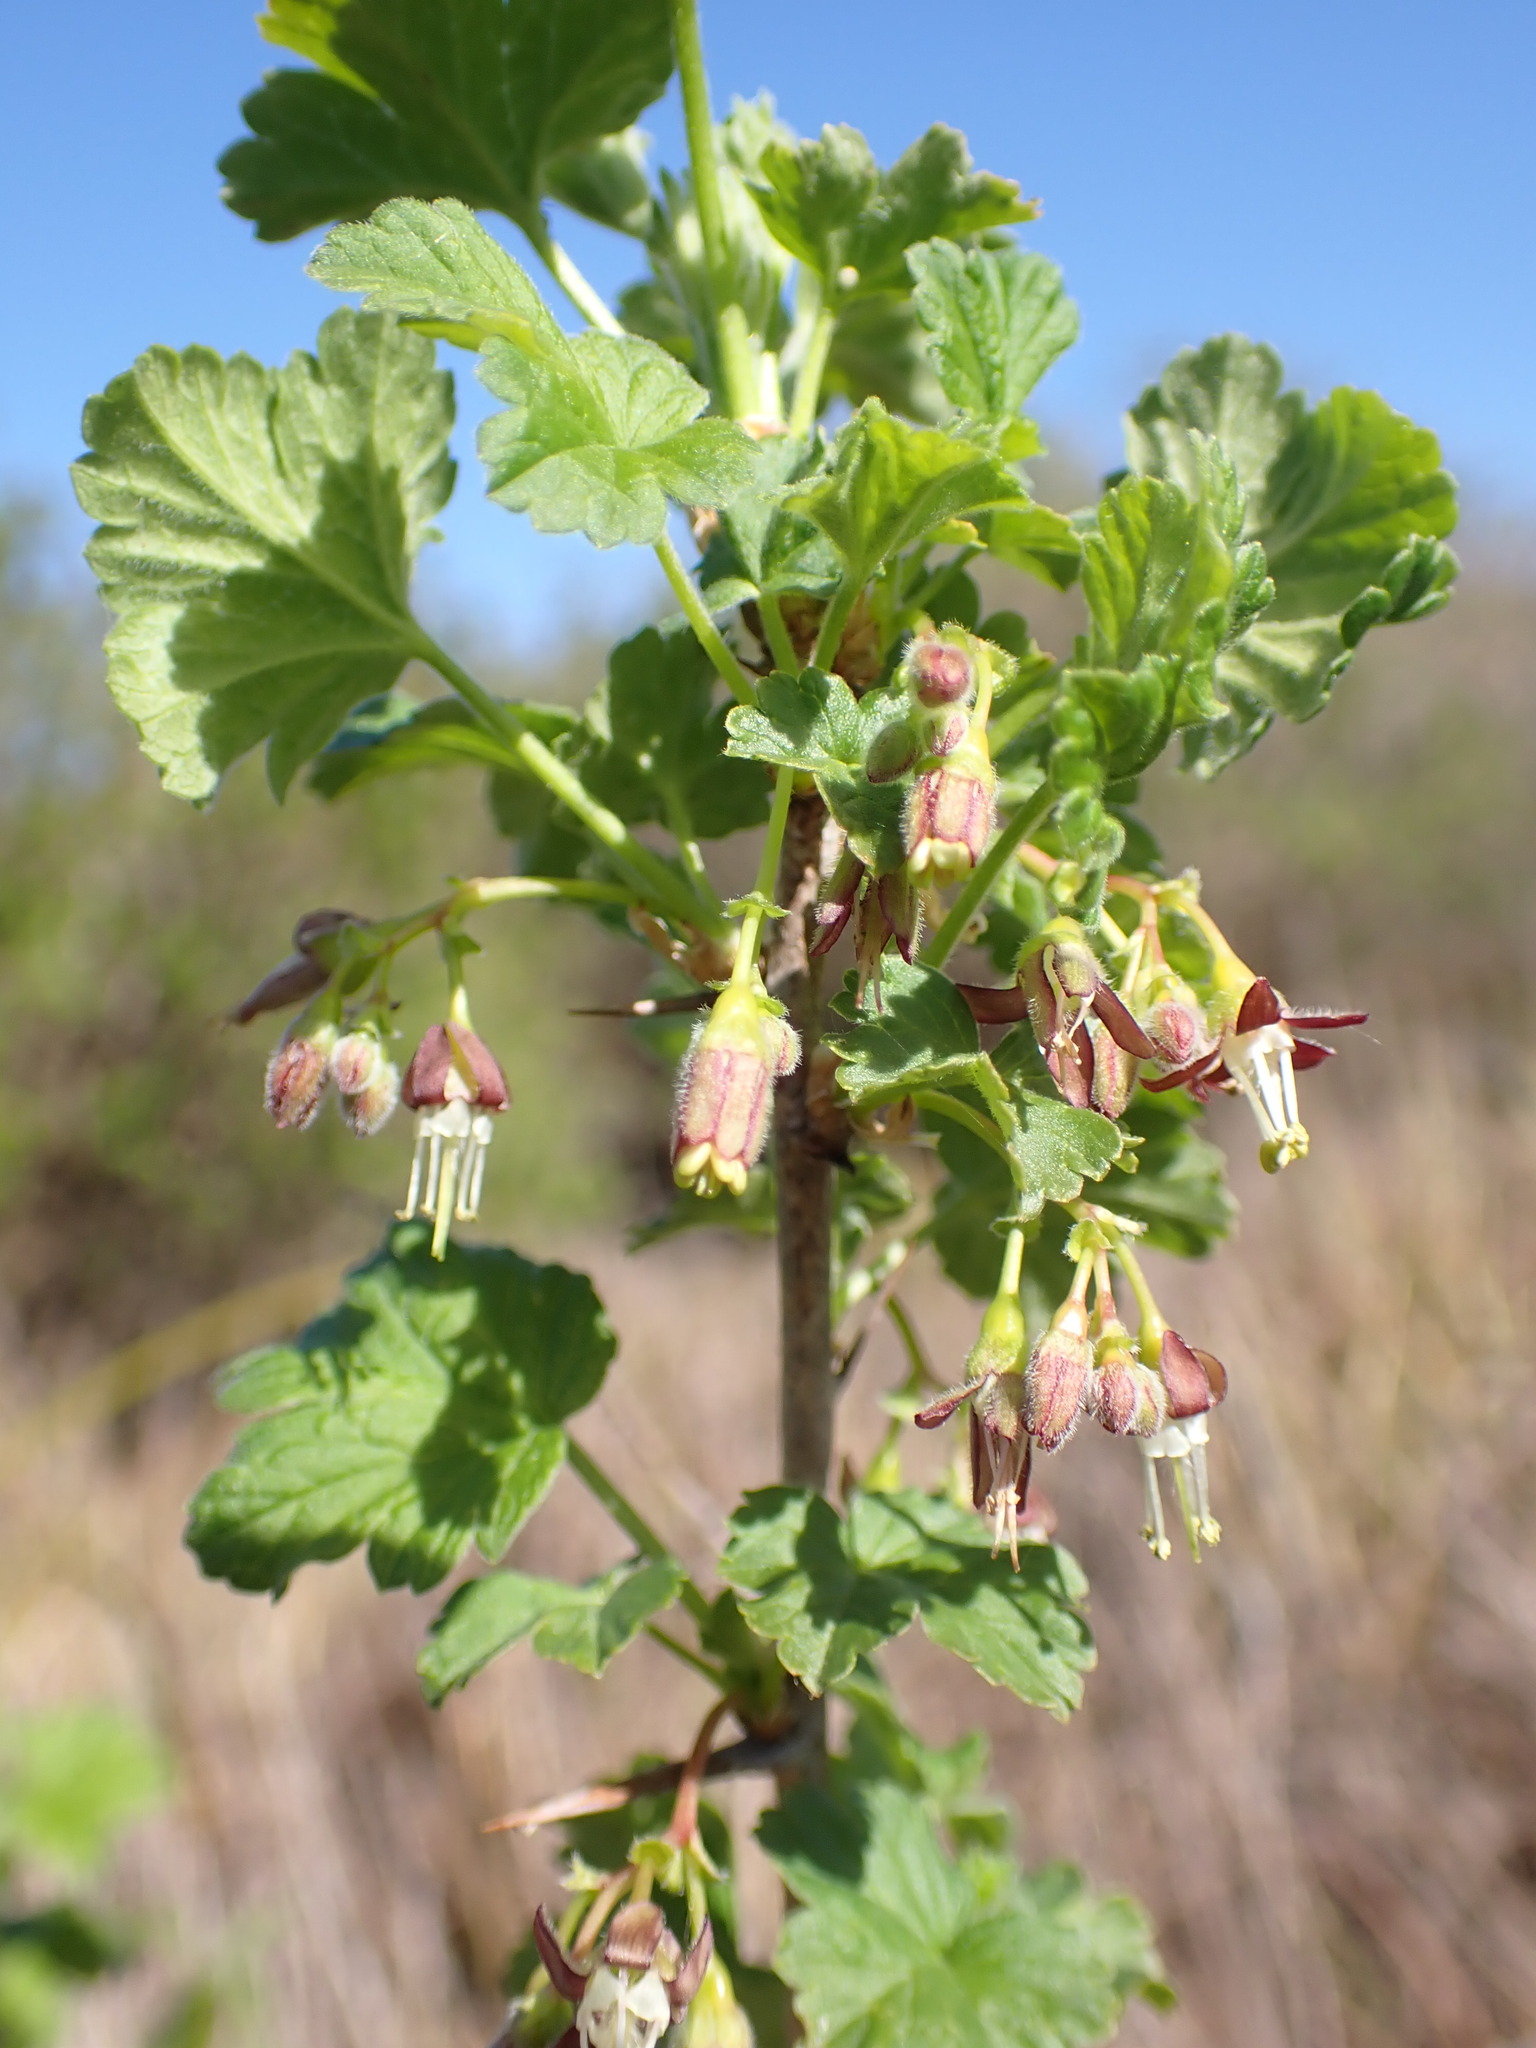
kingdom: Plantae
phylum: Tracheophyta
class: Magnoliopsida
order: Saxifragales
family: Grossulariaceae
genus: Ribes
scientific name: Ribes divaricatum
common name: Wild black gooseberry
